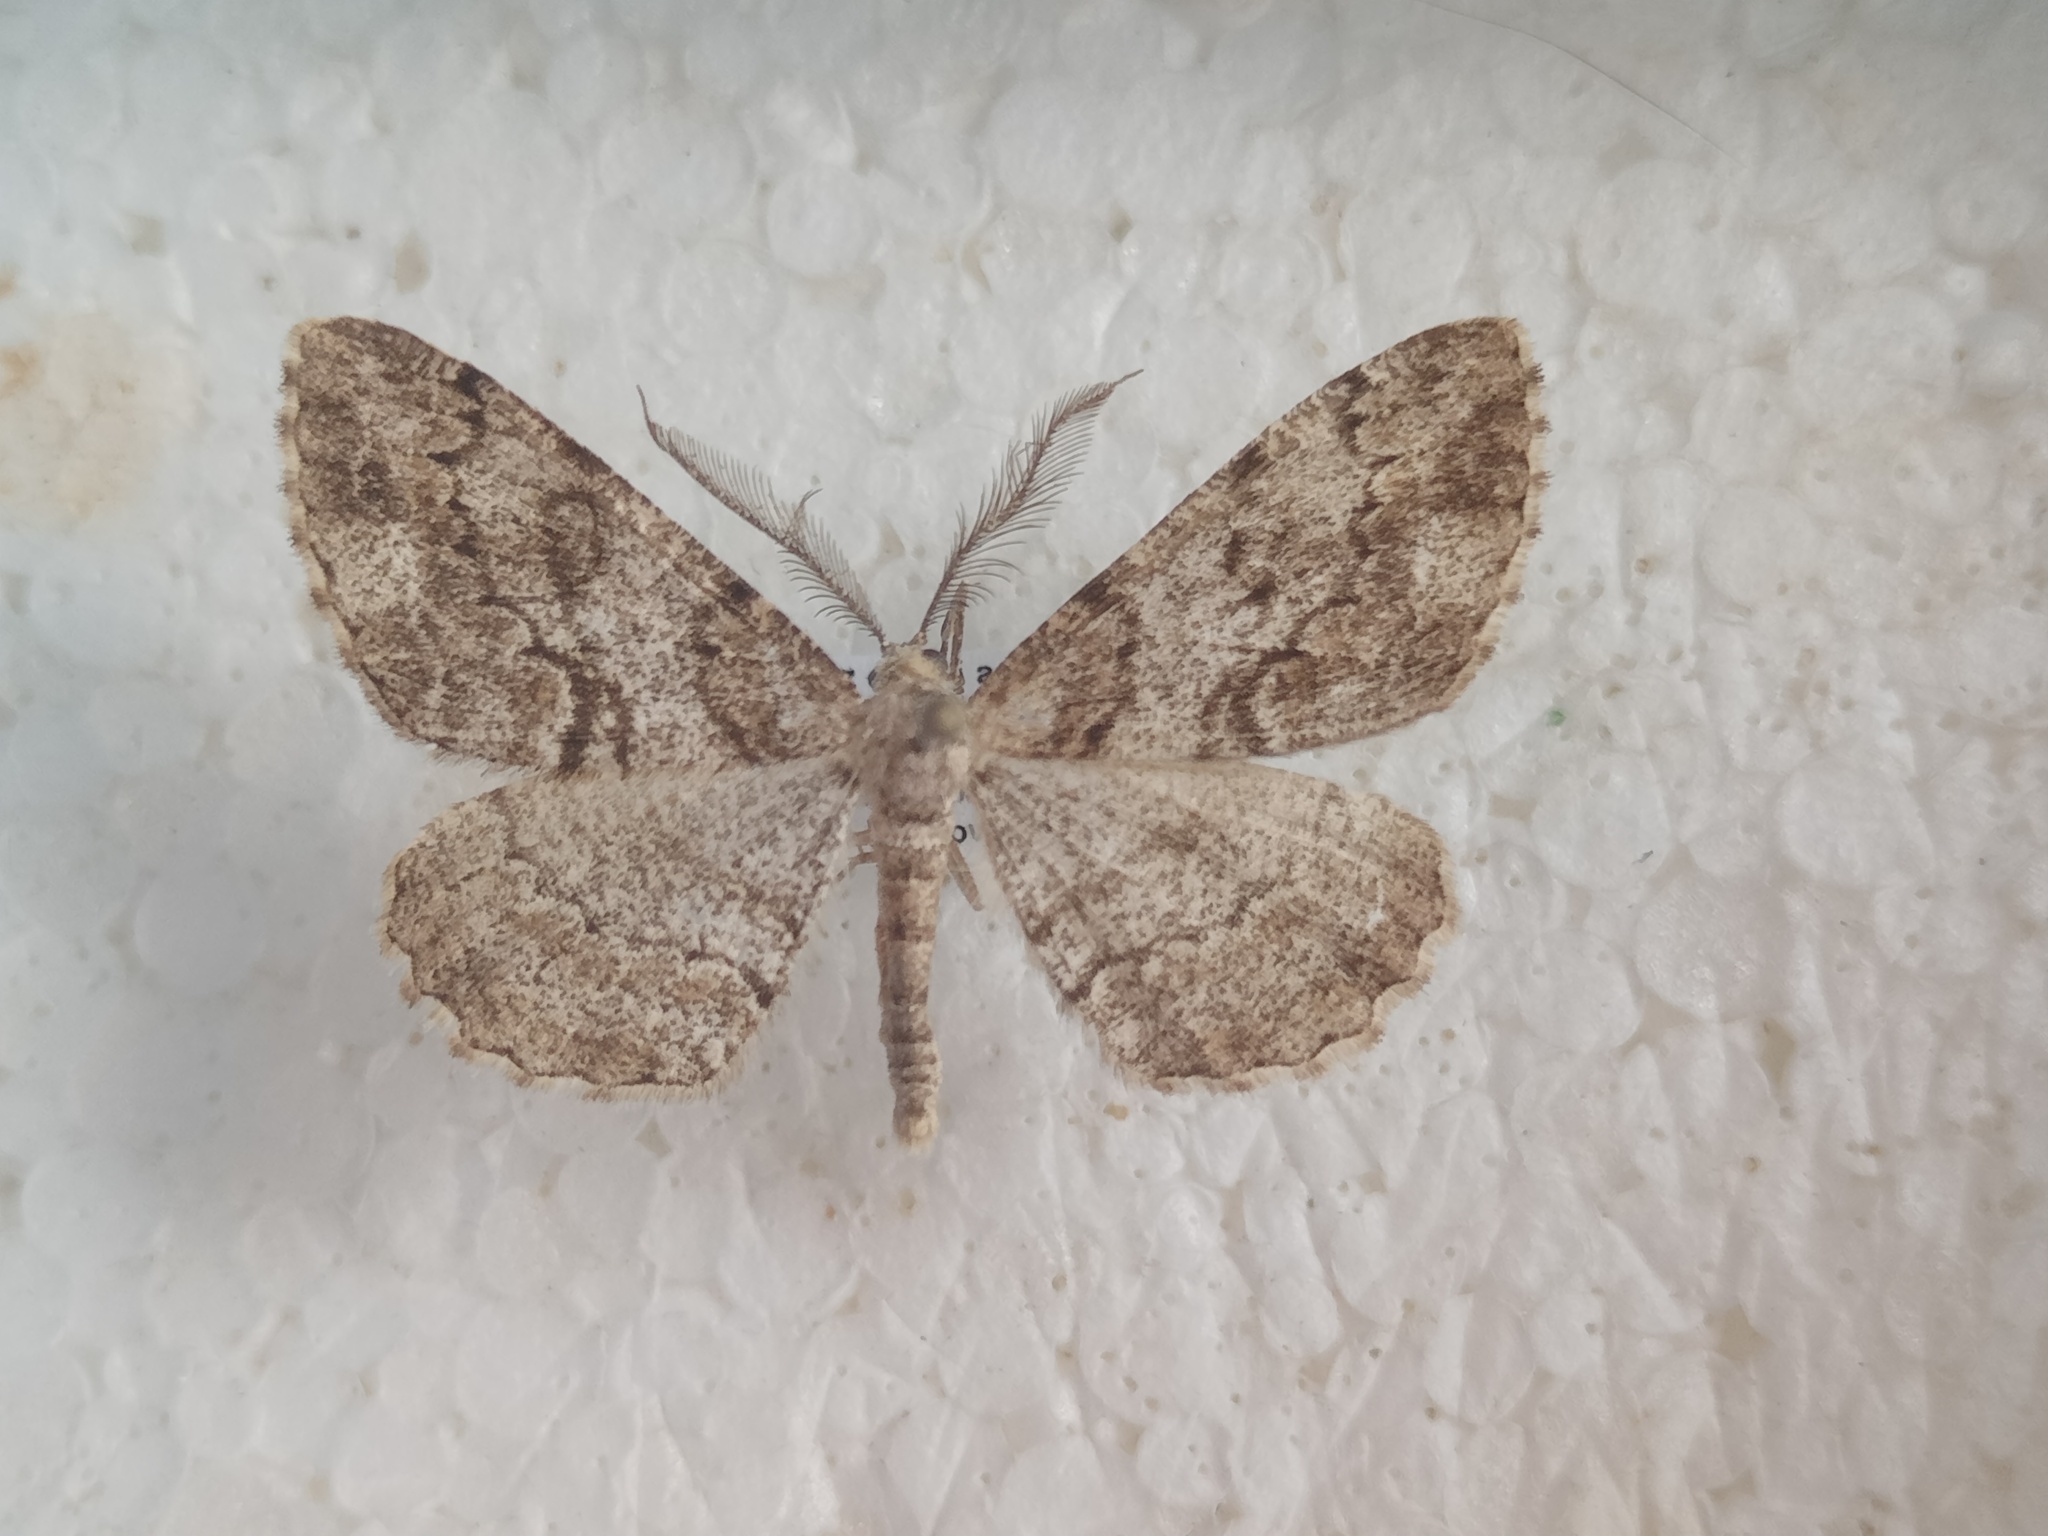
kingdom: Animalia
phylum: Arthropoda
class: Insecta
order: Lepidoptera
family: Geometridae
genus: Peribatodes
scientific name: Peribatodes secundaria
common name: Feathered beauty
